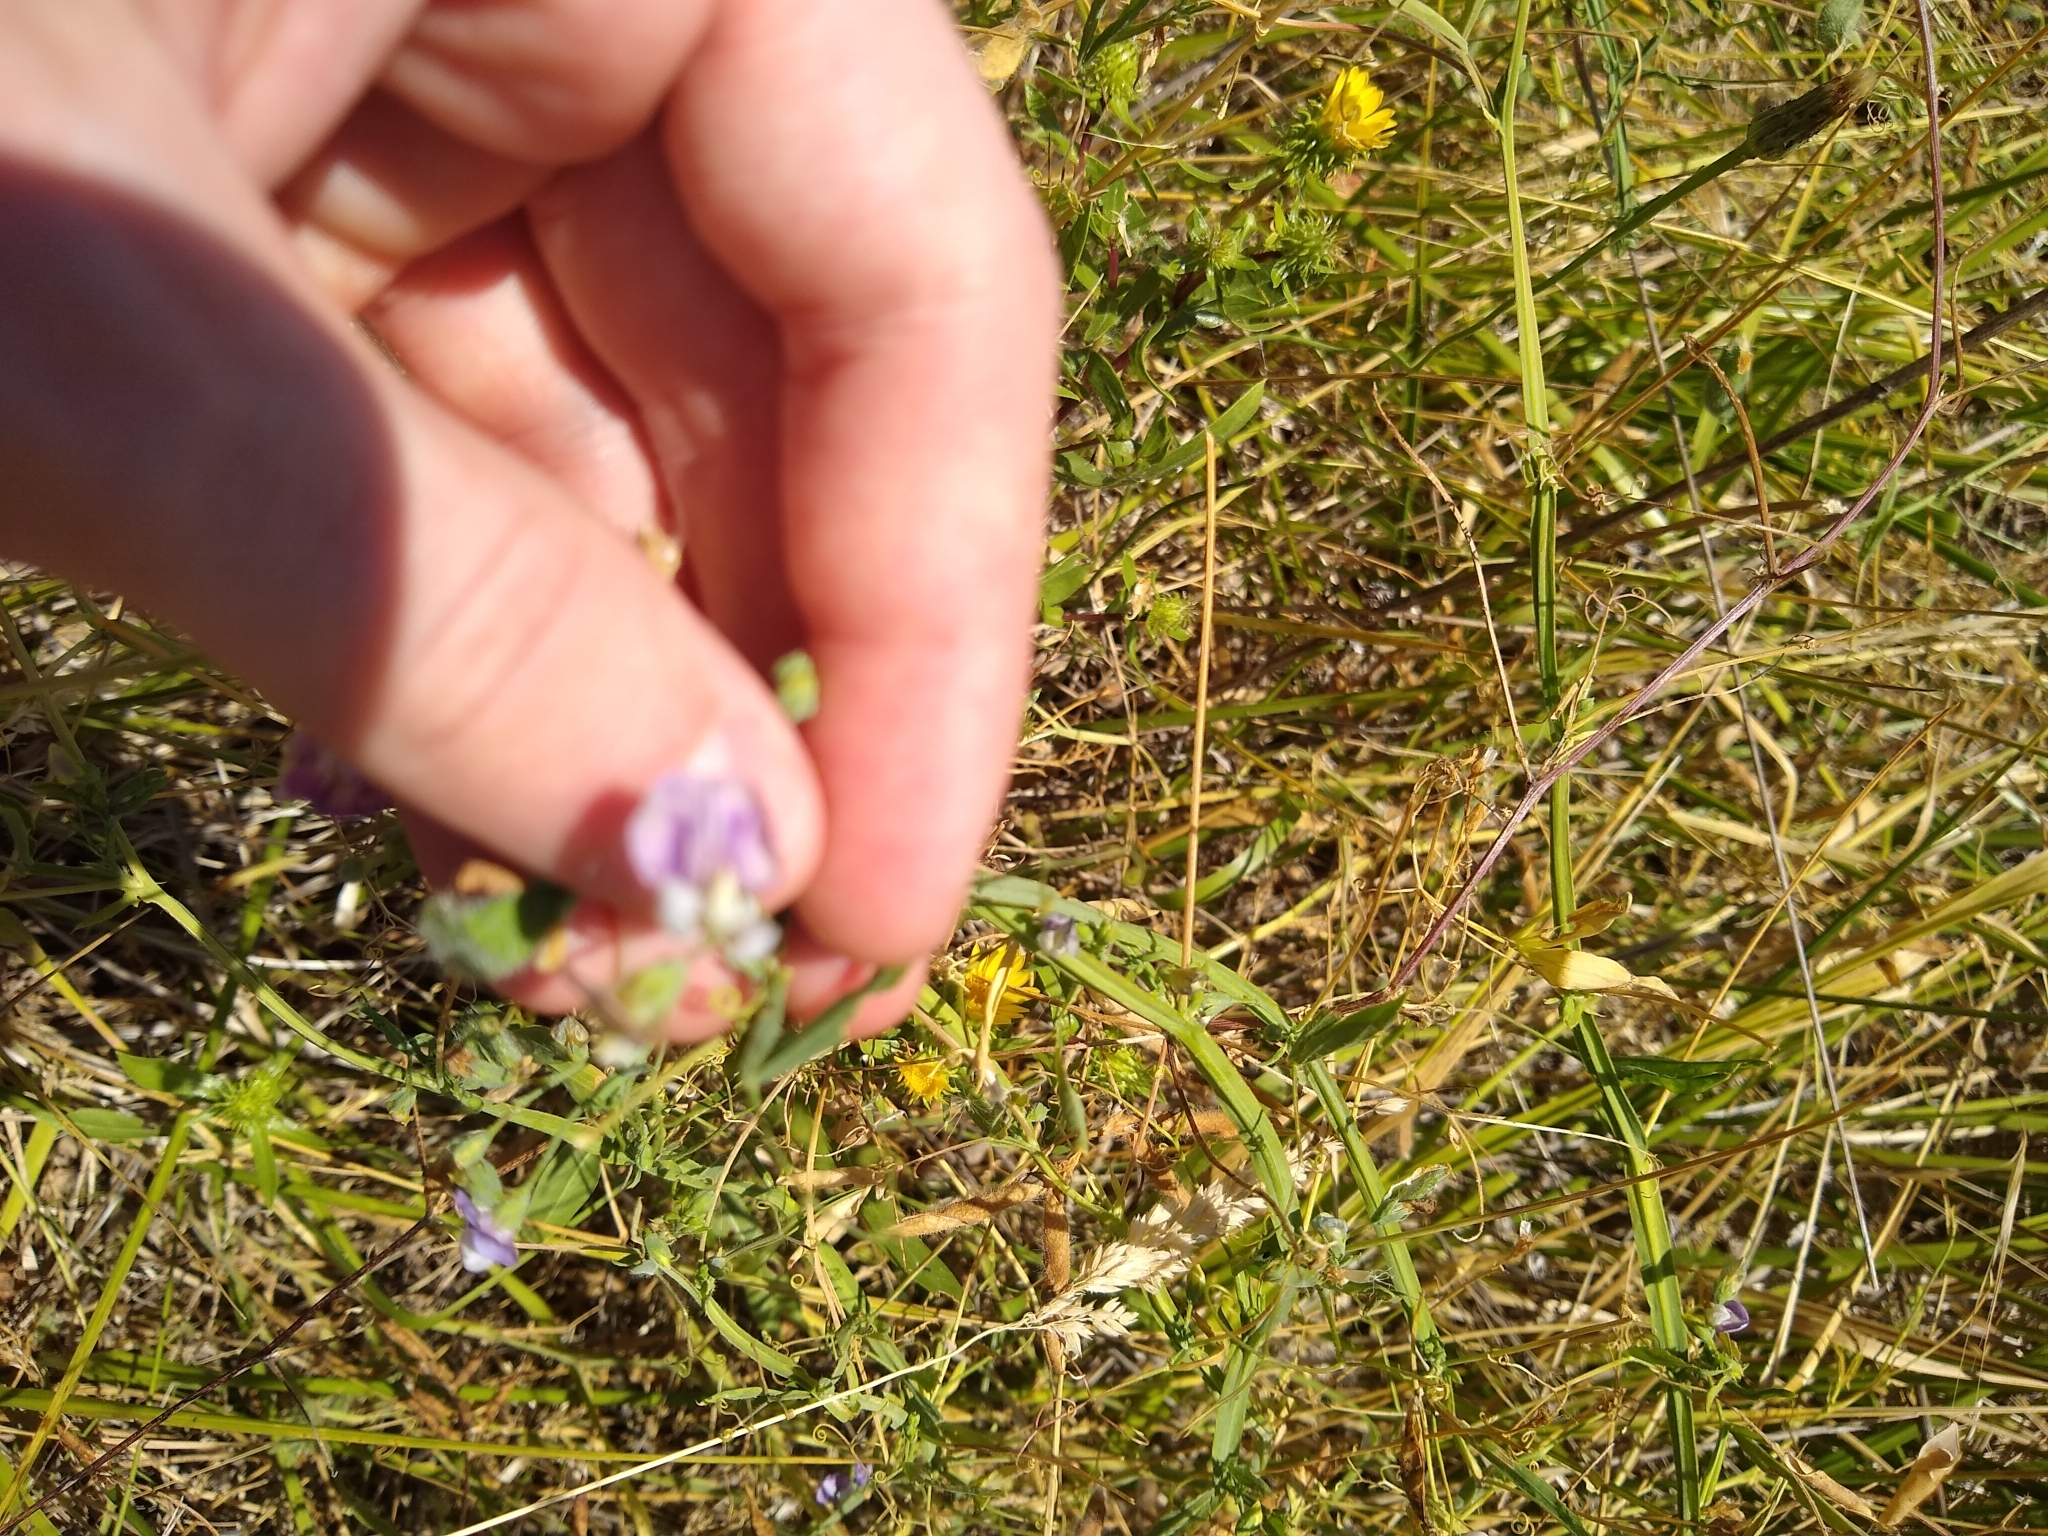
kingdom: Plantae
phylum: Tracheophyta
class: Magnoliopsida
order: Fabales
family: Fabaceae
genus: Lathyrus
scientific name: Lathyrus hirsutus
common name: Hairy vetchling
